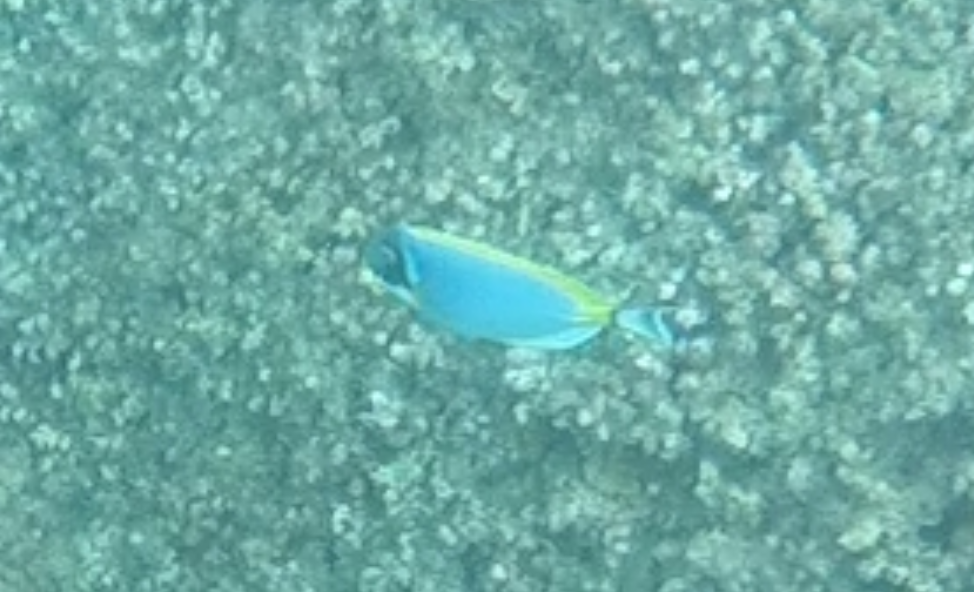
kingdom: Animalia
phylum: Chordata
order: Perciformes
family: Acanthuridae
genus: Acanthurus
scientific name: Acanthurus leucosternon
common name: Blue surgeonfish
